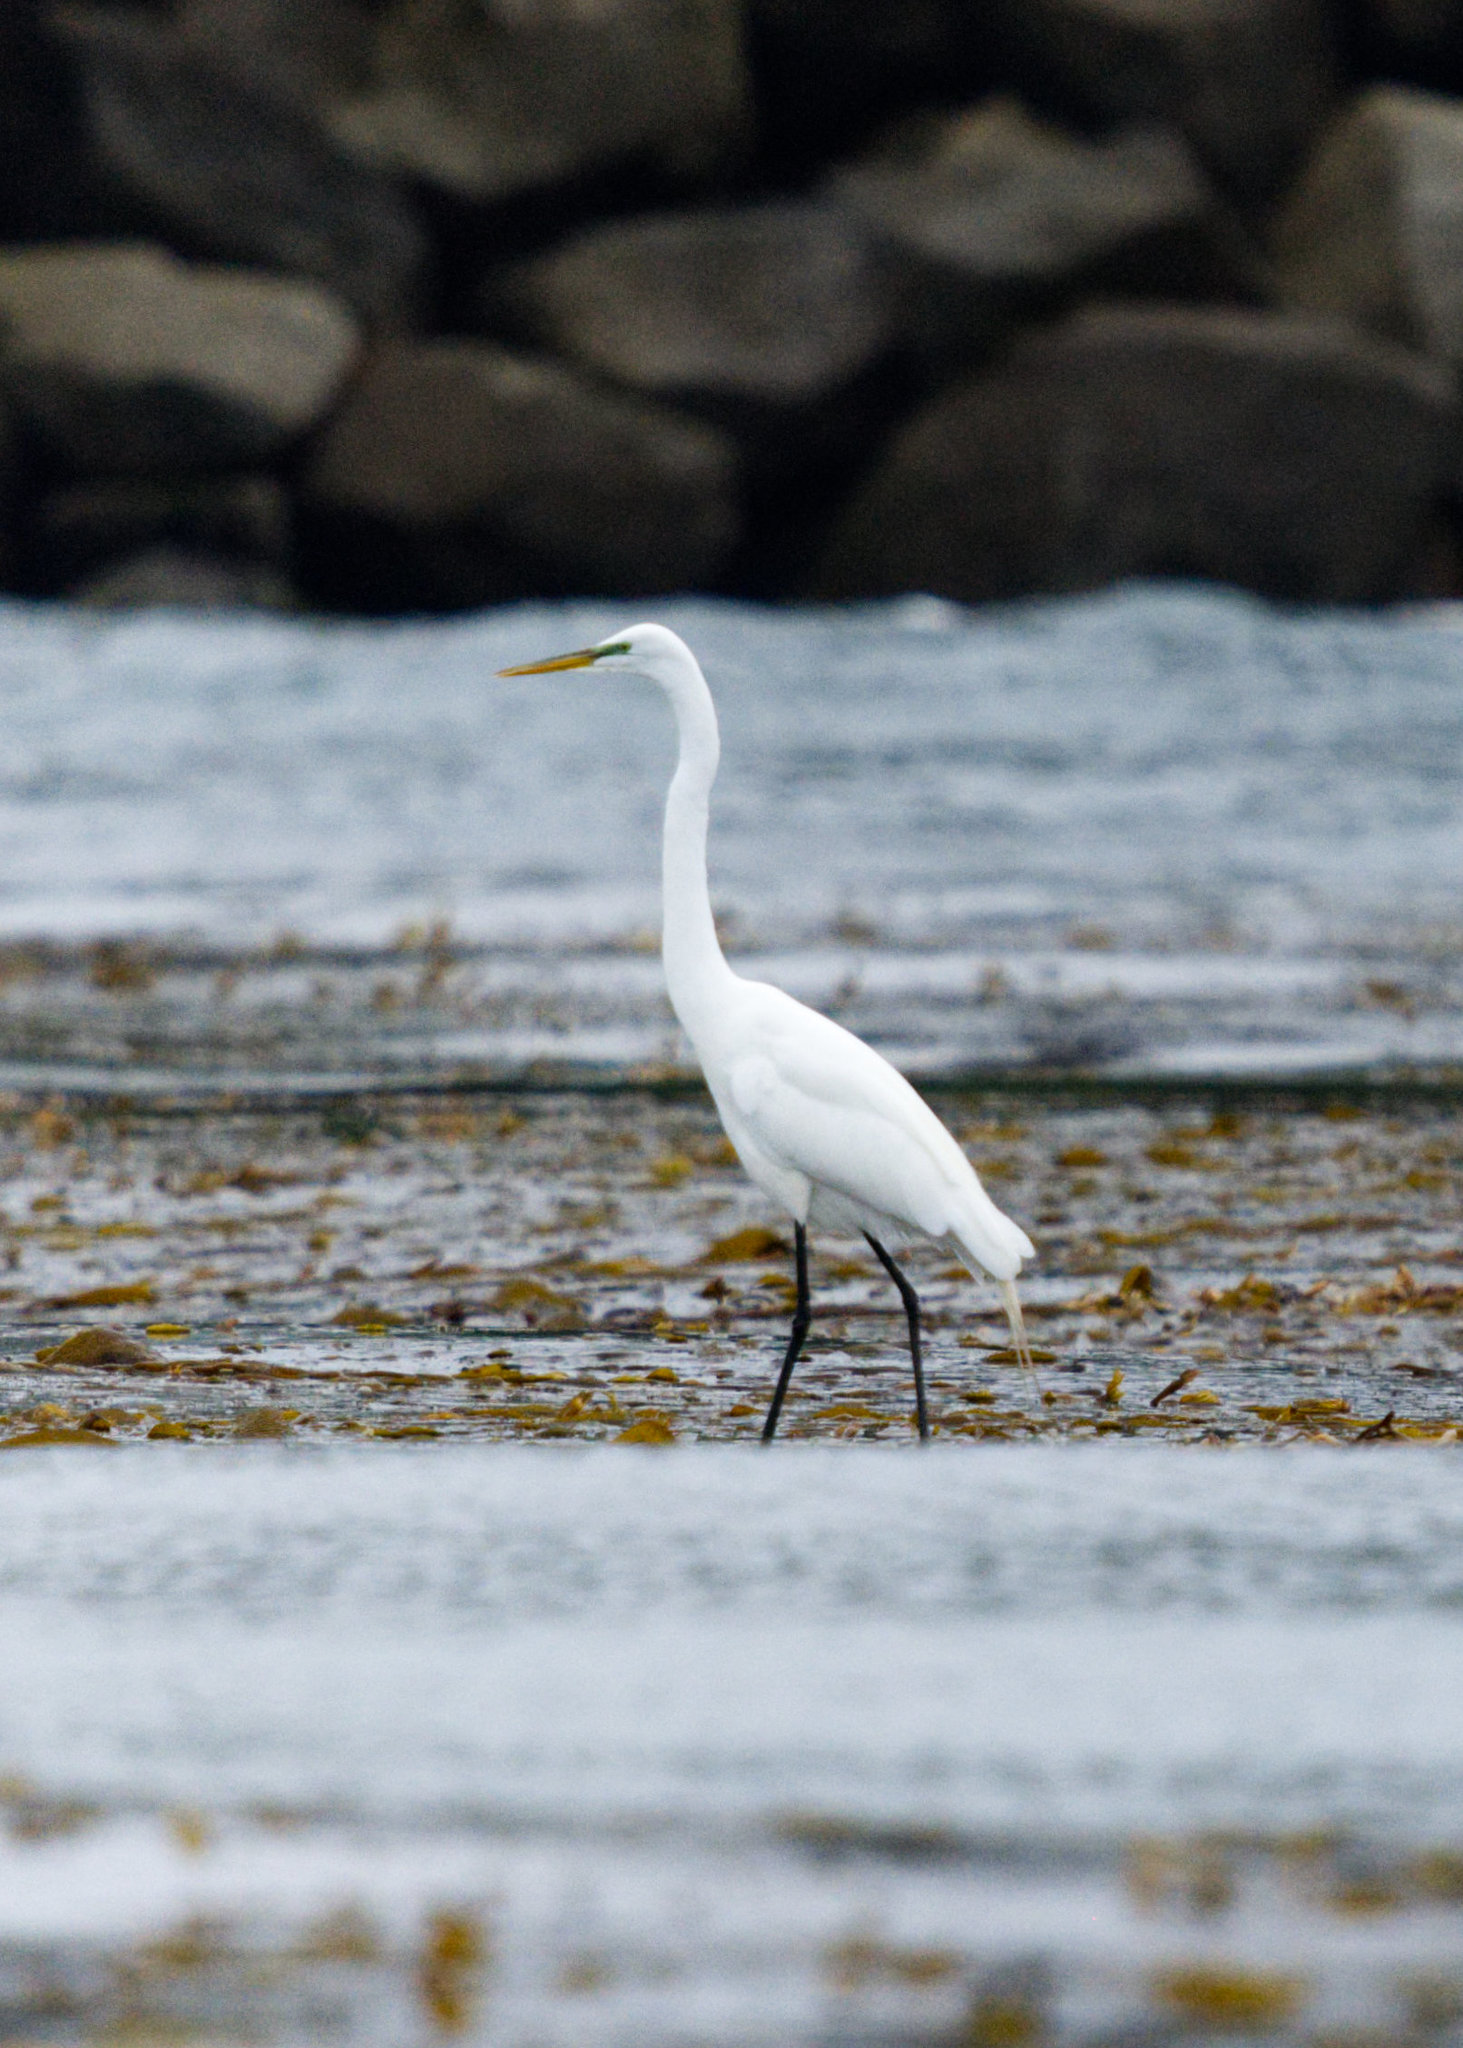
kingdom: Animalia
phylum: Chordata
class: Aves
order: Pelecaniformes
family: Ardeidae
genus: Ardea
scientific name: Ardea alba
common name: Great egret
